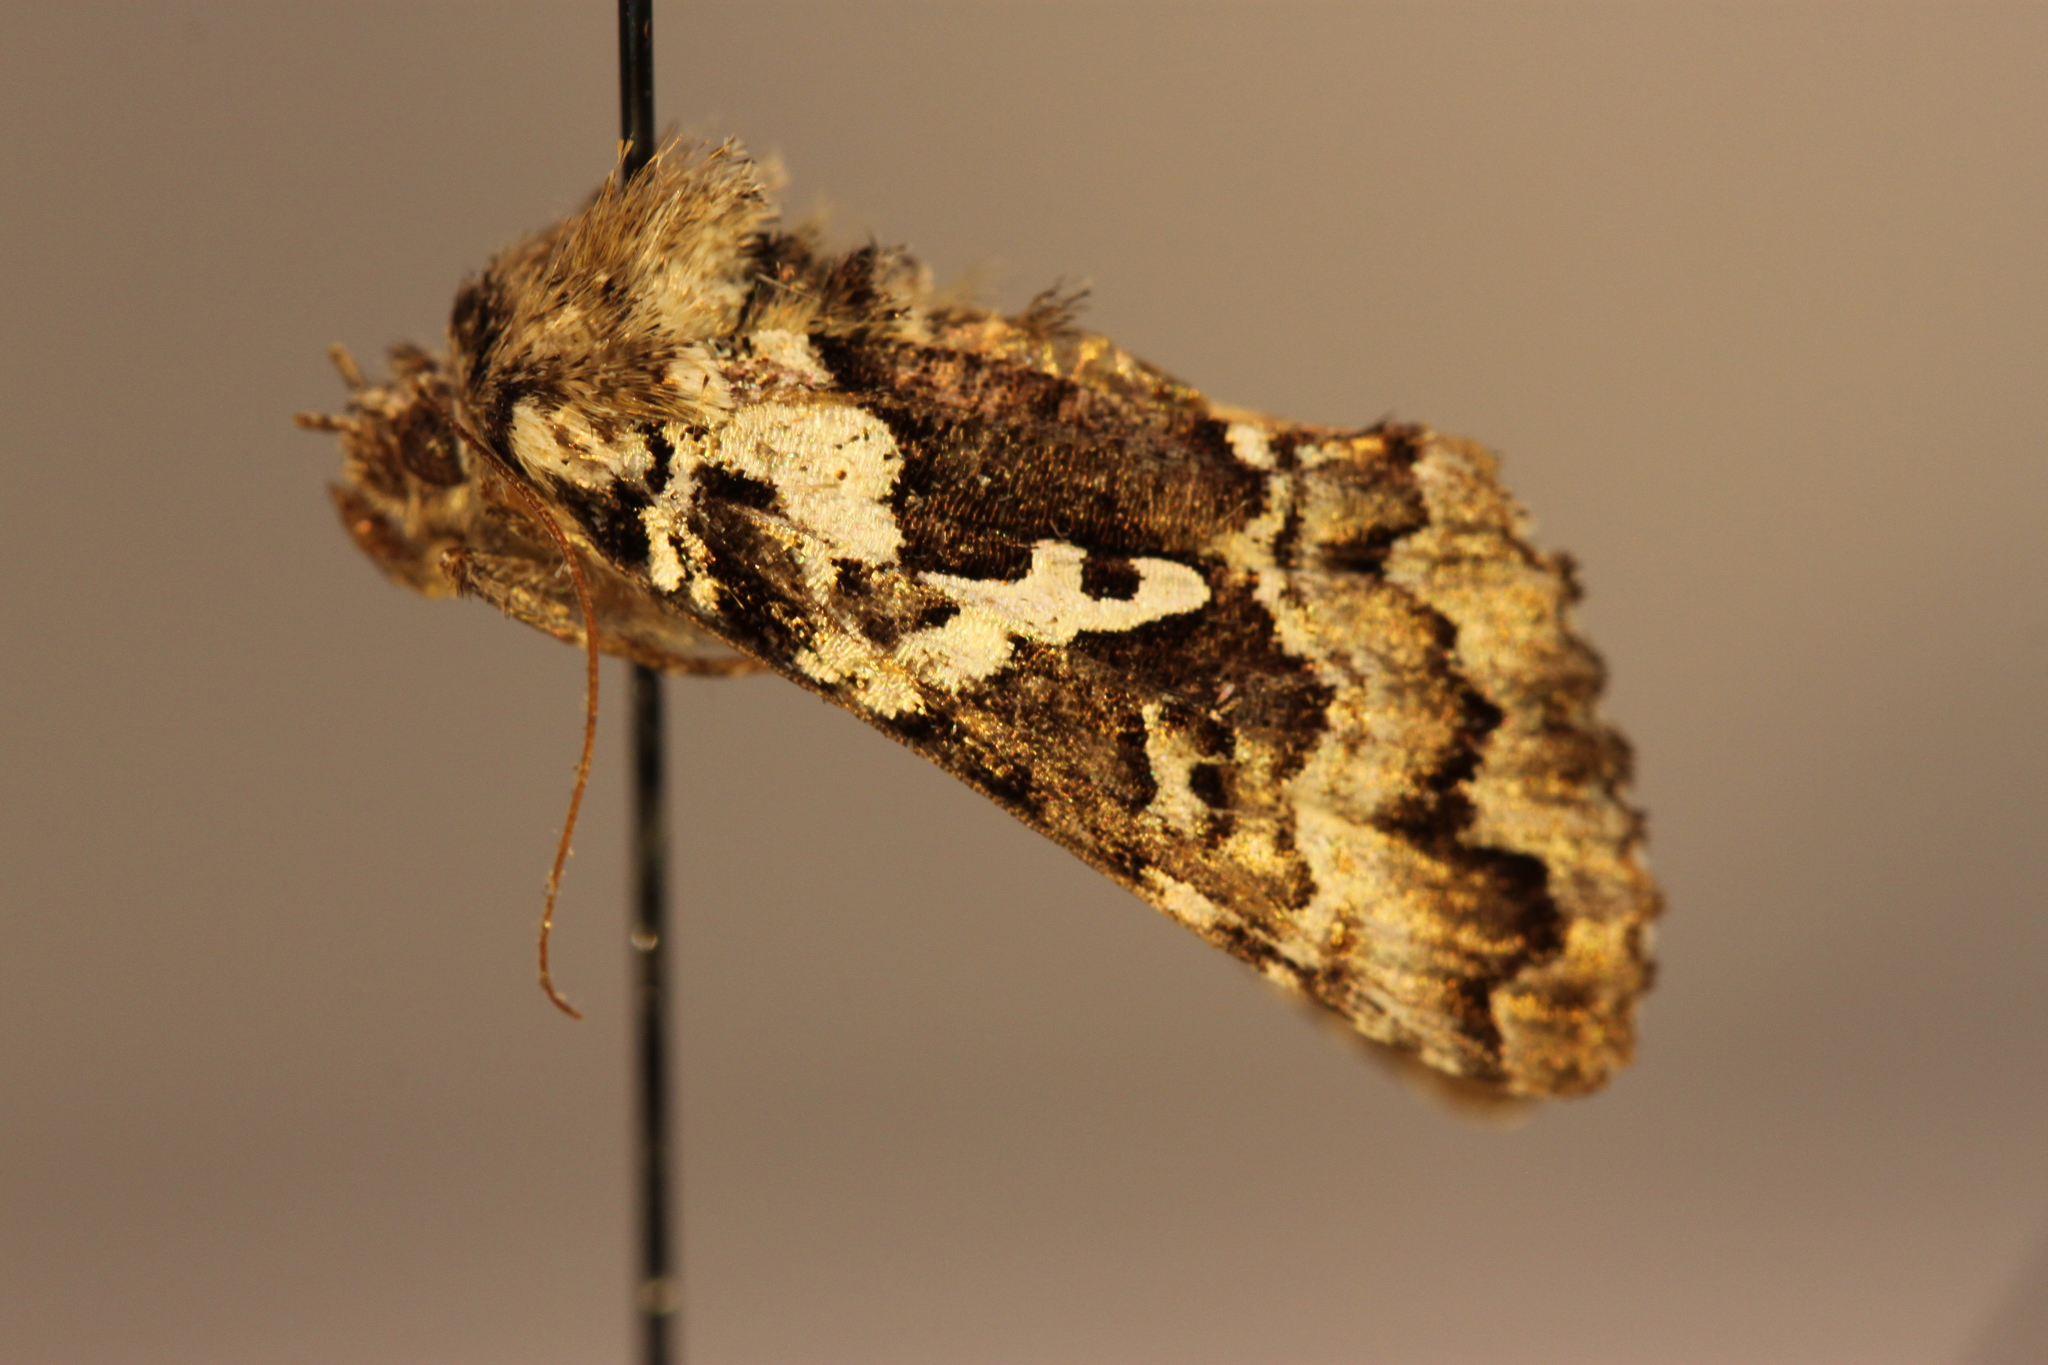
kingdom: Animalia
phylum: Arthropoda
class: Insecta
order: Lepidoptera
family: Noctuidae
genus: Syngrapha
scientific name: Syngrapha rectangula
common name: Angulated cutworm
